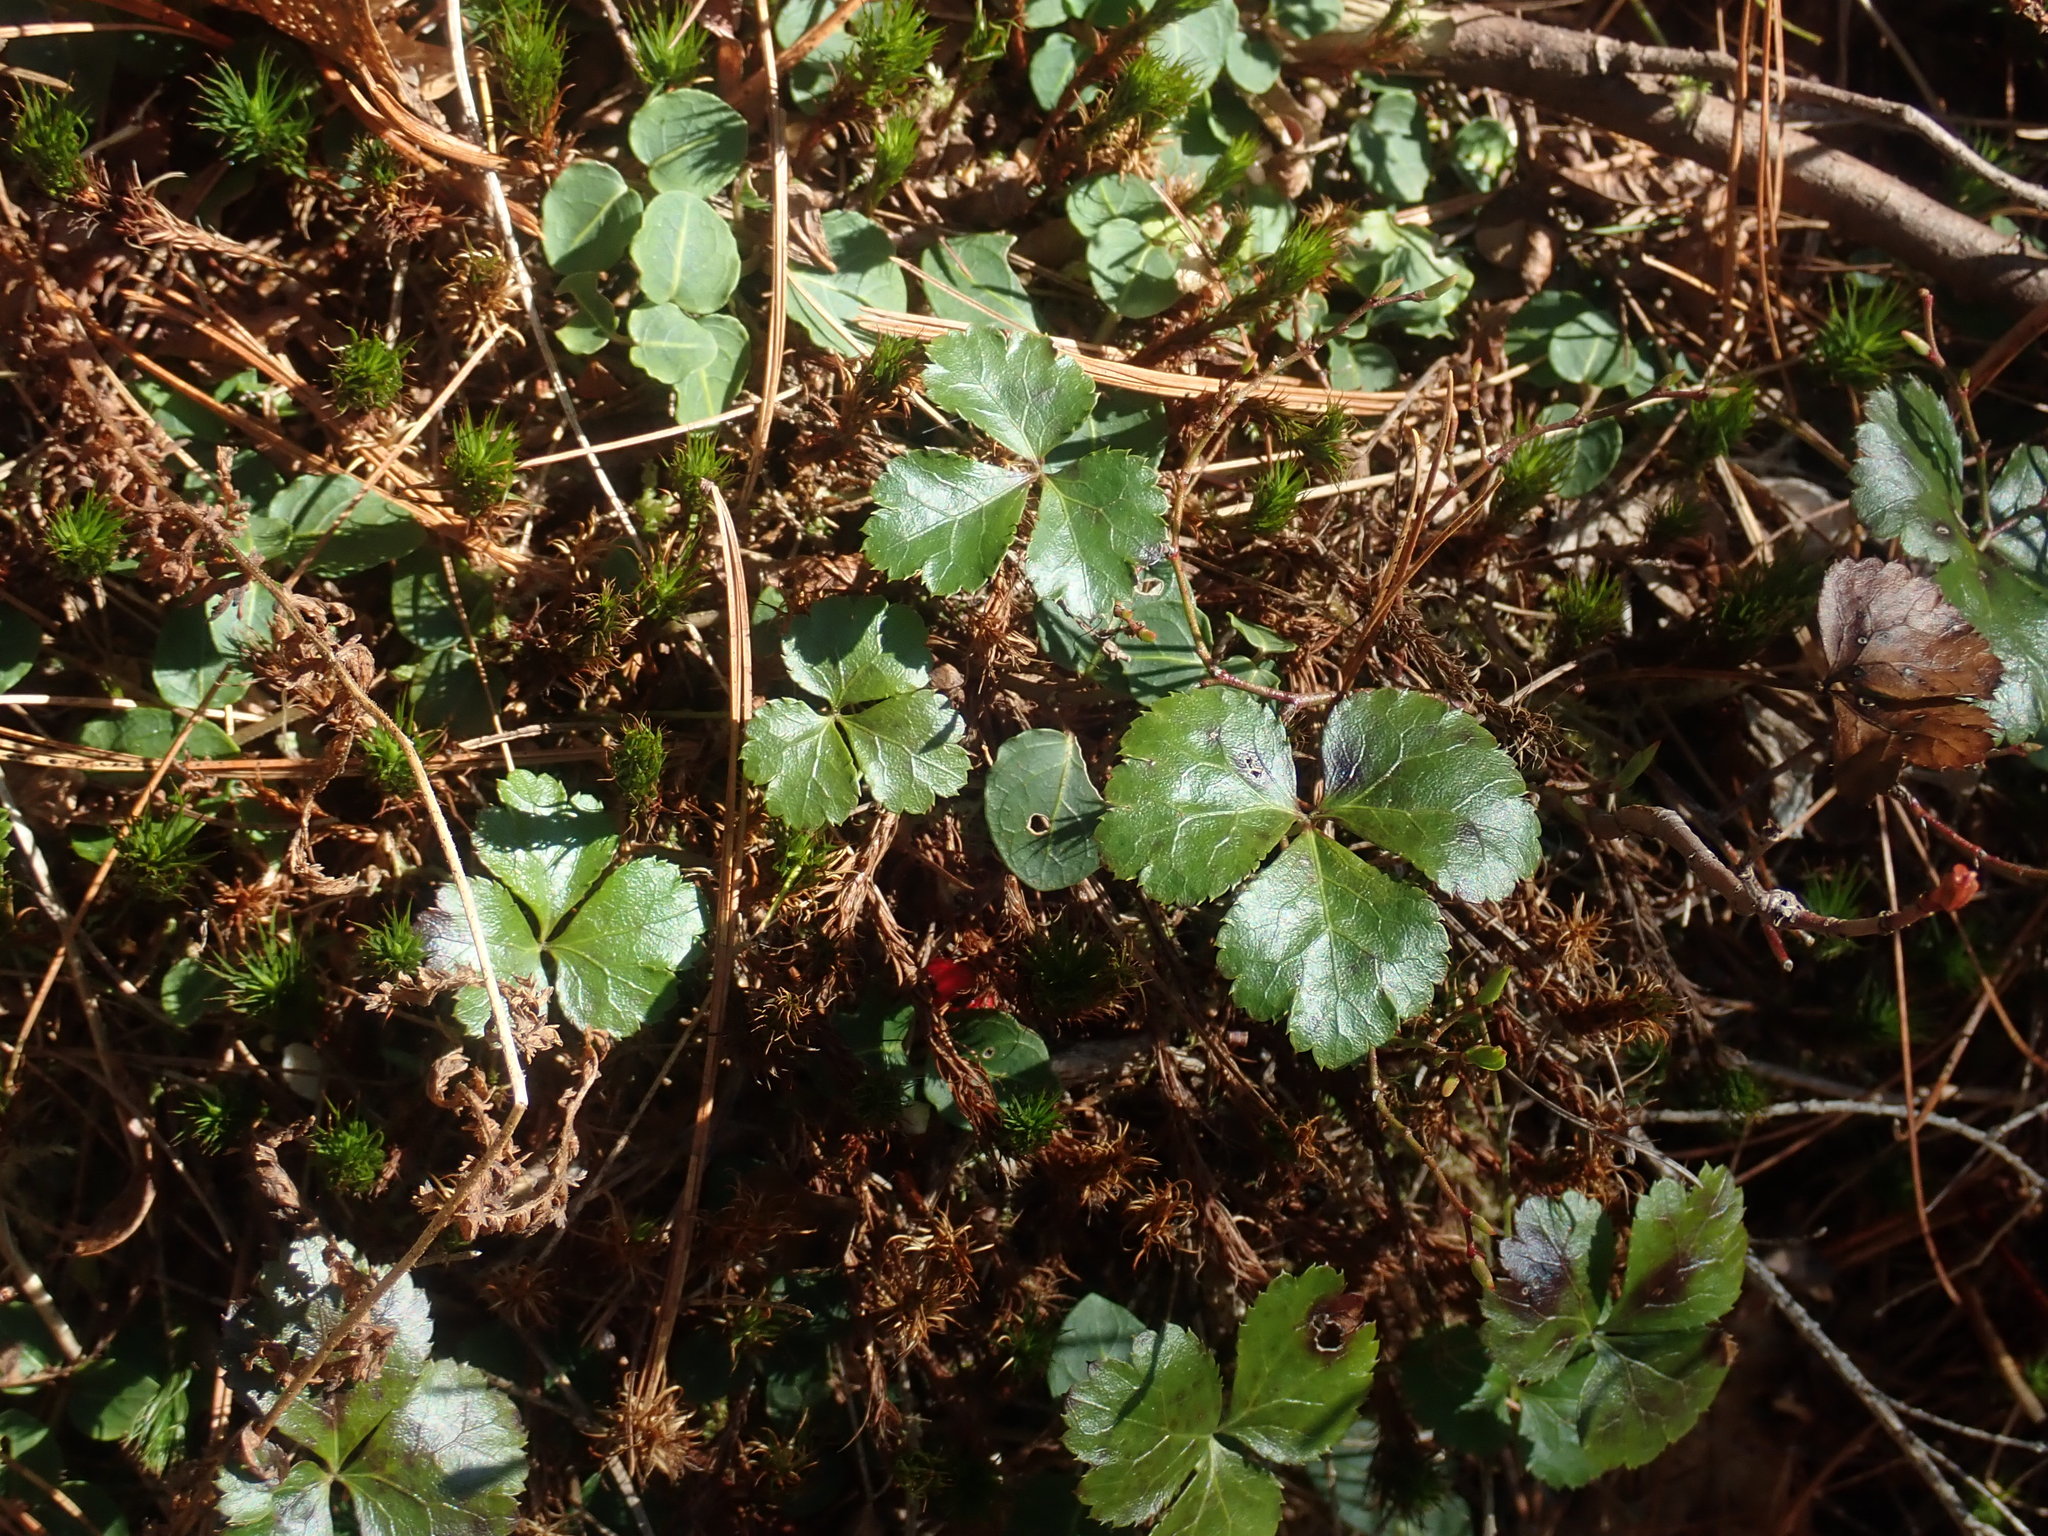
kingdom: Plantae
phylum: Tracheophyta
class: Magnoliopsida
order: Ranunculales
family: Ranunculaceae
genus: Coptis
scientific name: Coptis trifolia
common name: Canker-root
